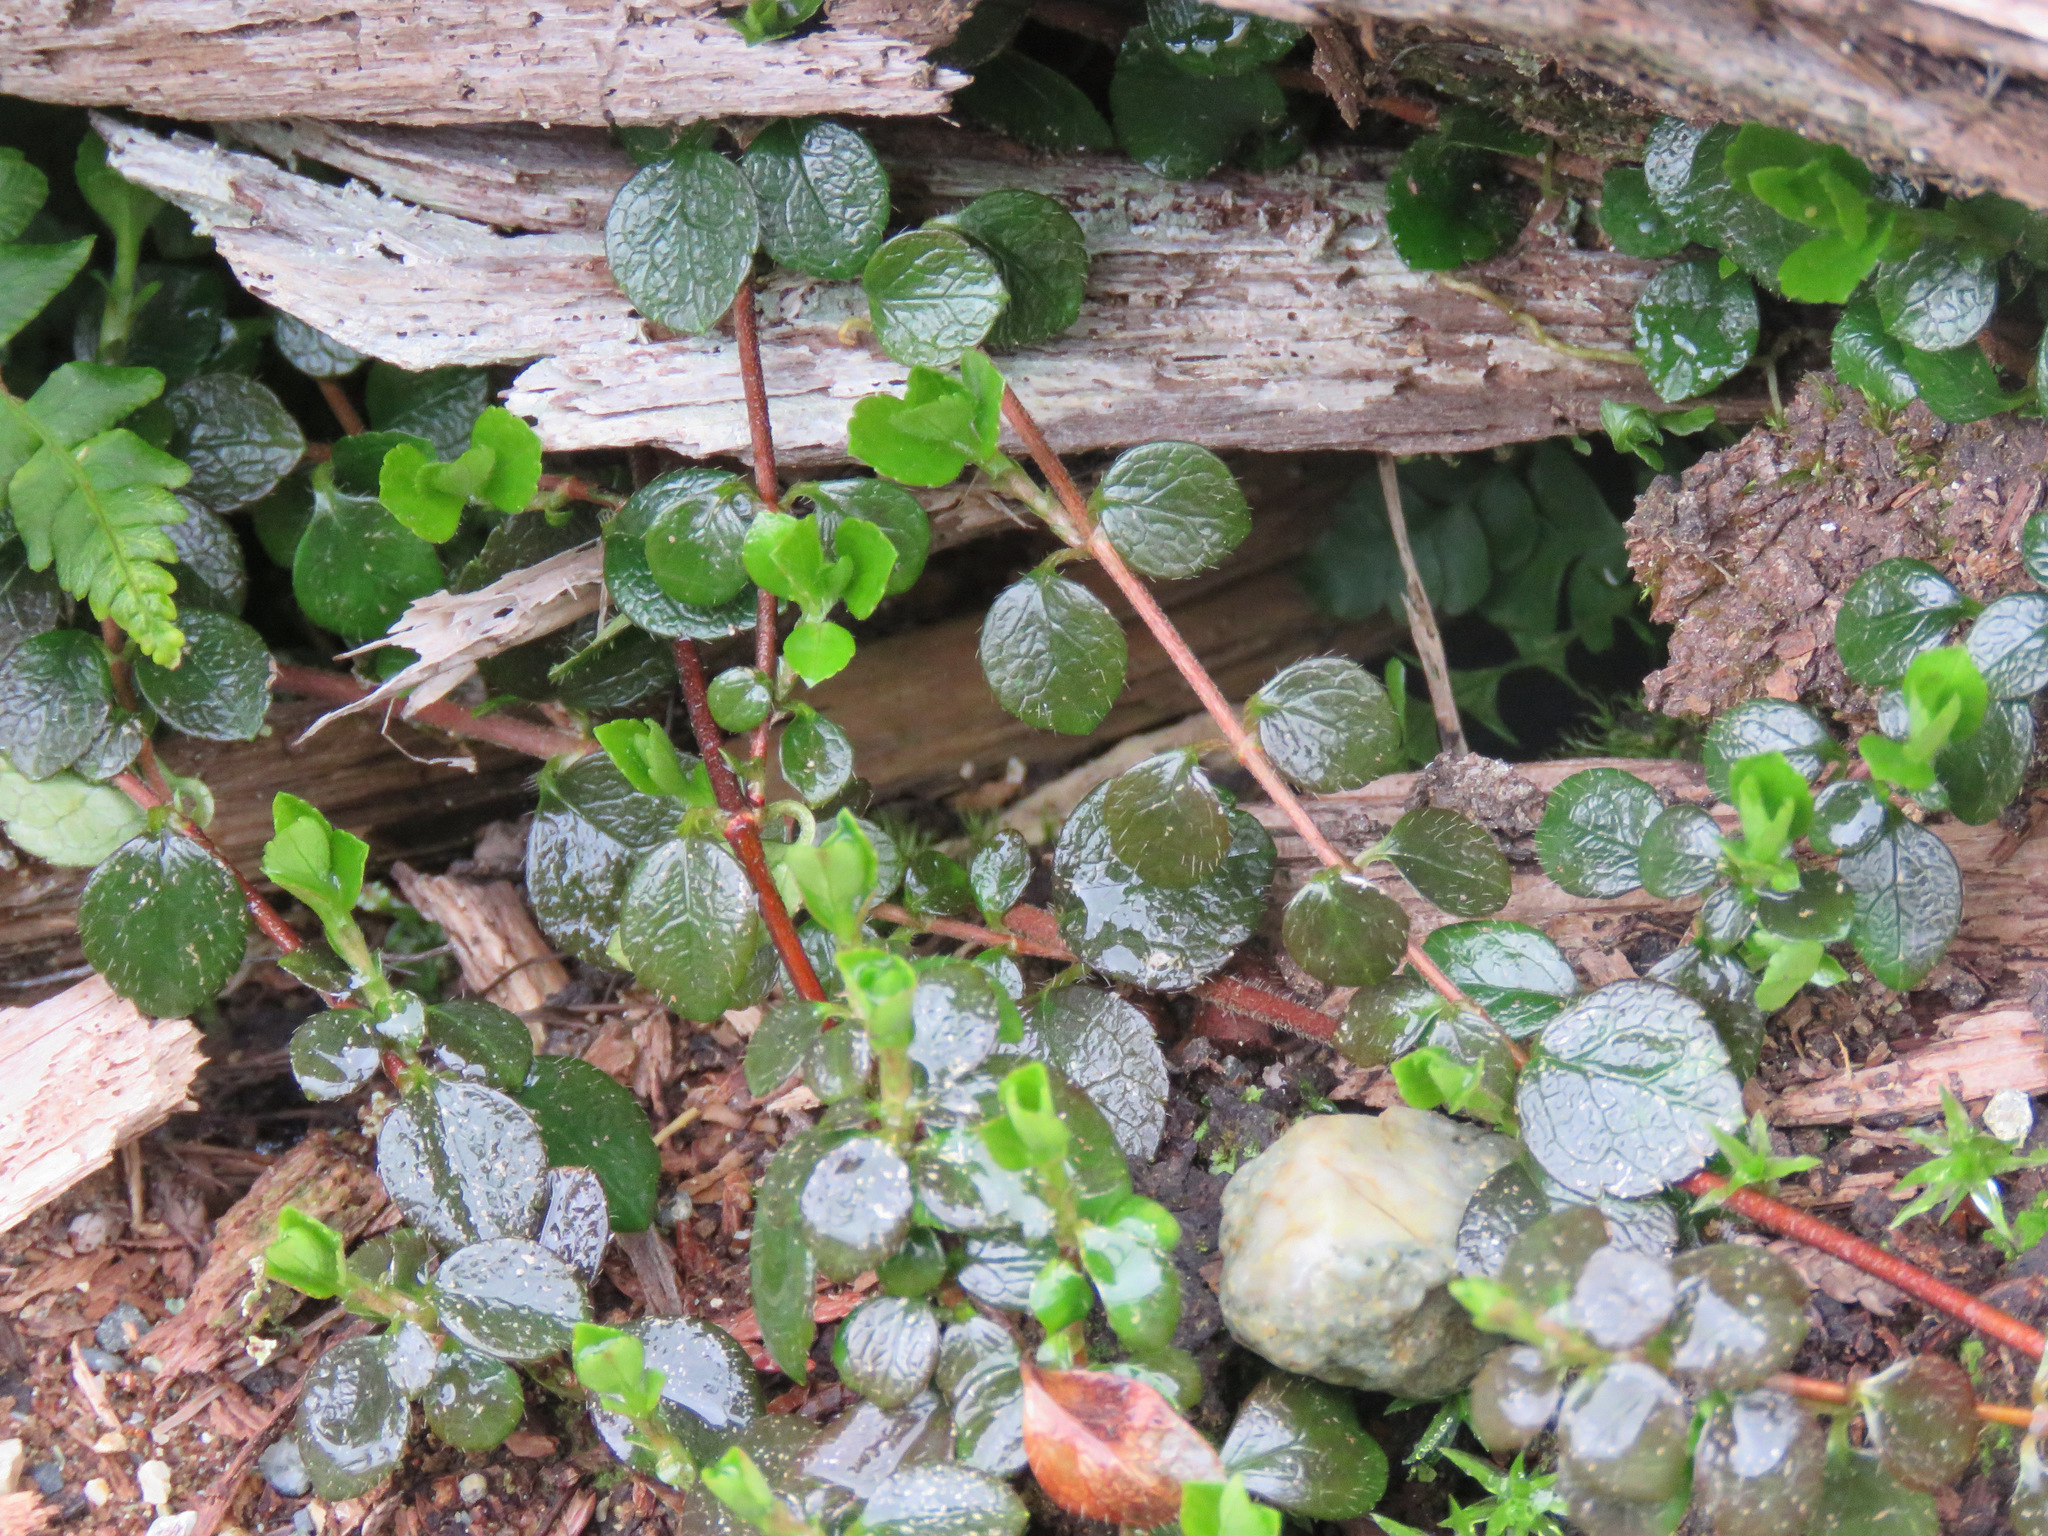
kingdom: Plantae
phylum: Tracheophyta
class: Magnoliopsida
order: Dipsacales
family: Caprifoliaceae
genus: Linnaea
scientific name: Linnaea borealis
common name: Twinflower
